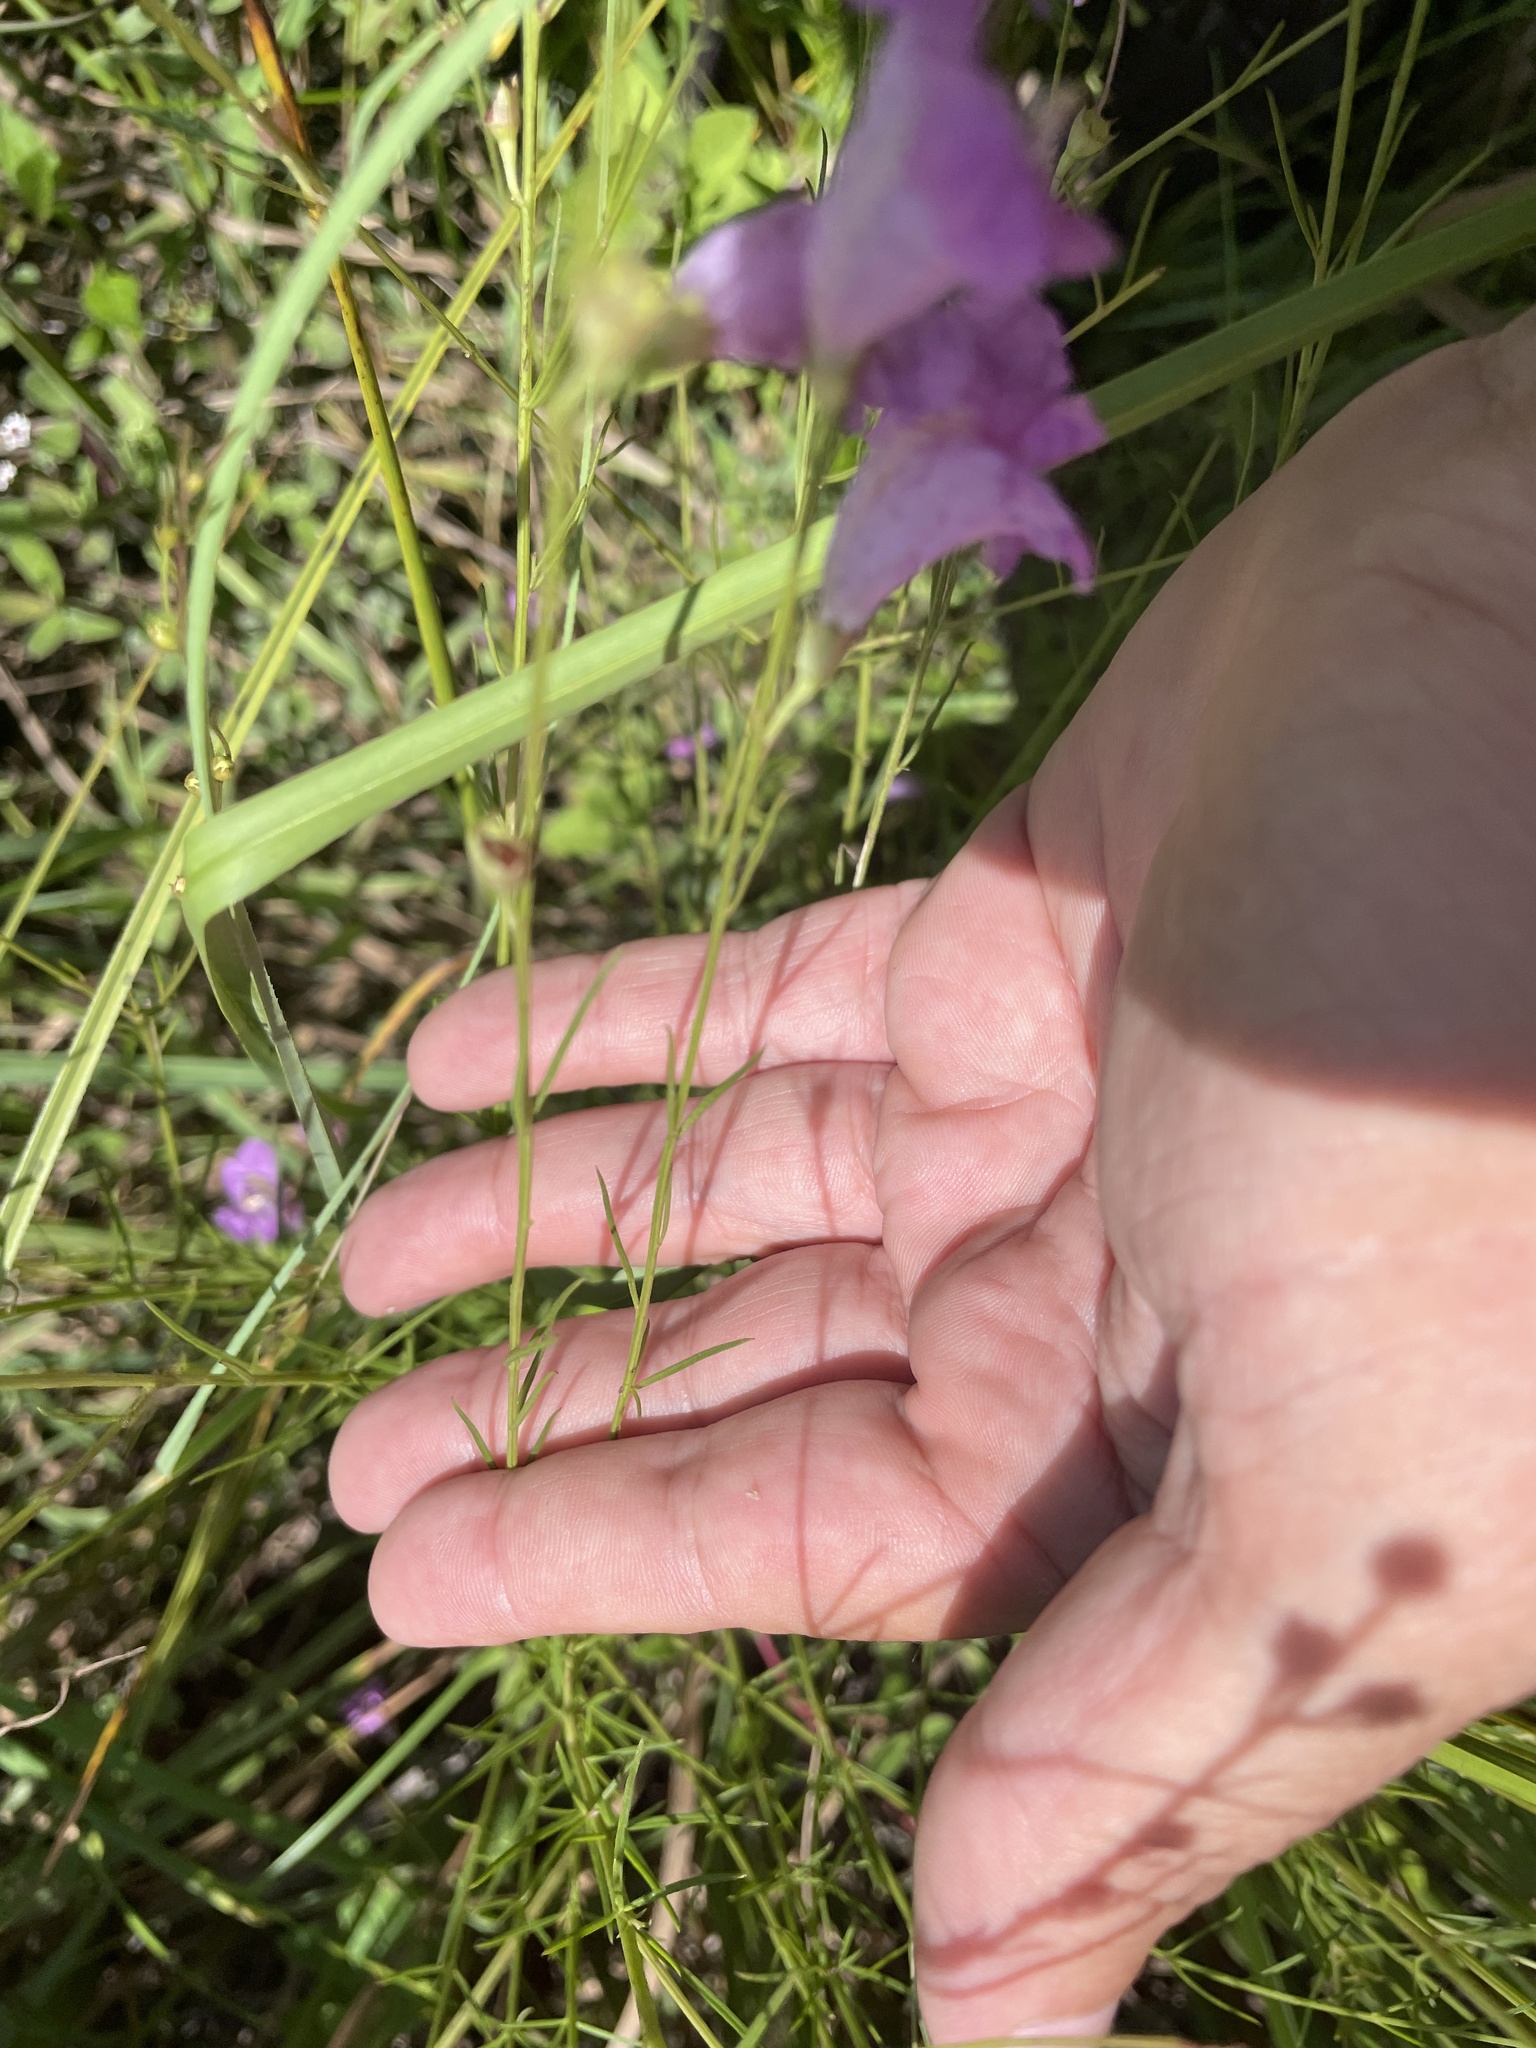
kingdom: Plantae
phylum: Tracheophyta
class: Magnoliopsida
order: Lamiales
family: Orobanchaceae
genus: Agalinis
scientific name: Agalinis purpurea
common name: Purple false foxglove
